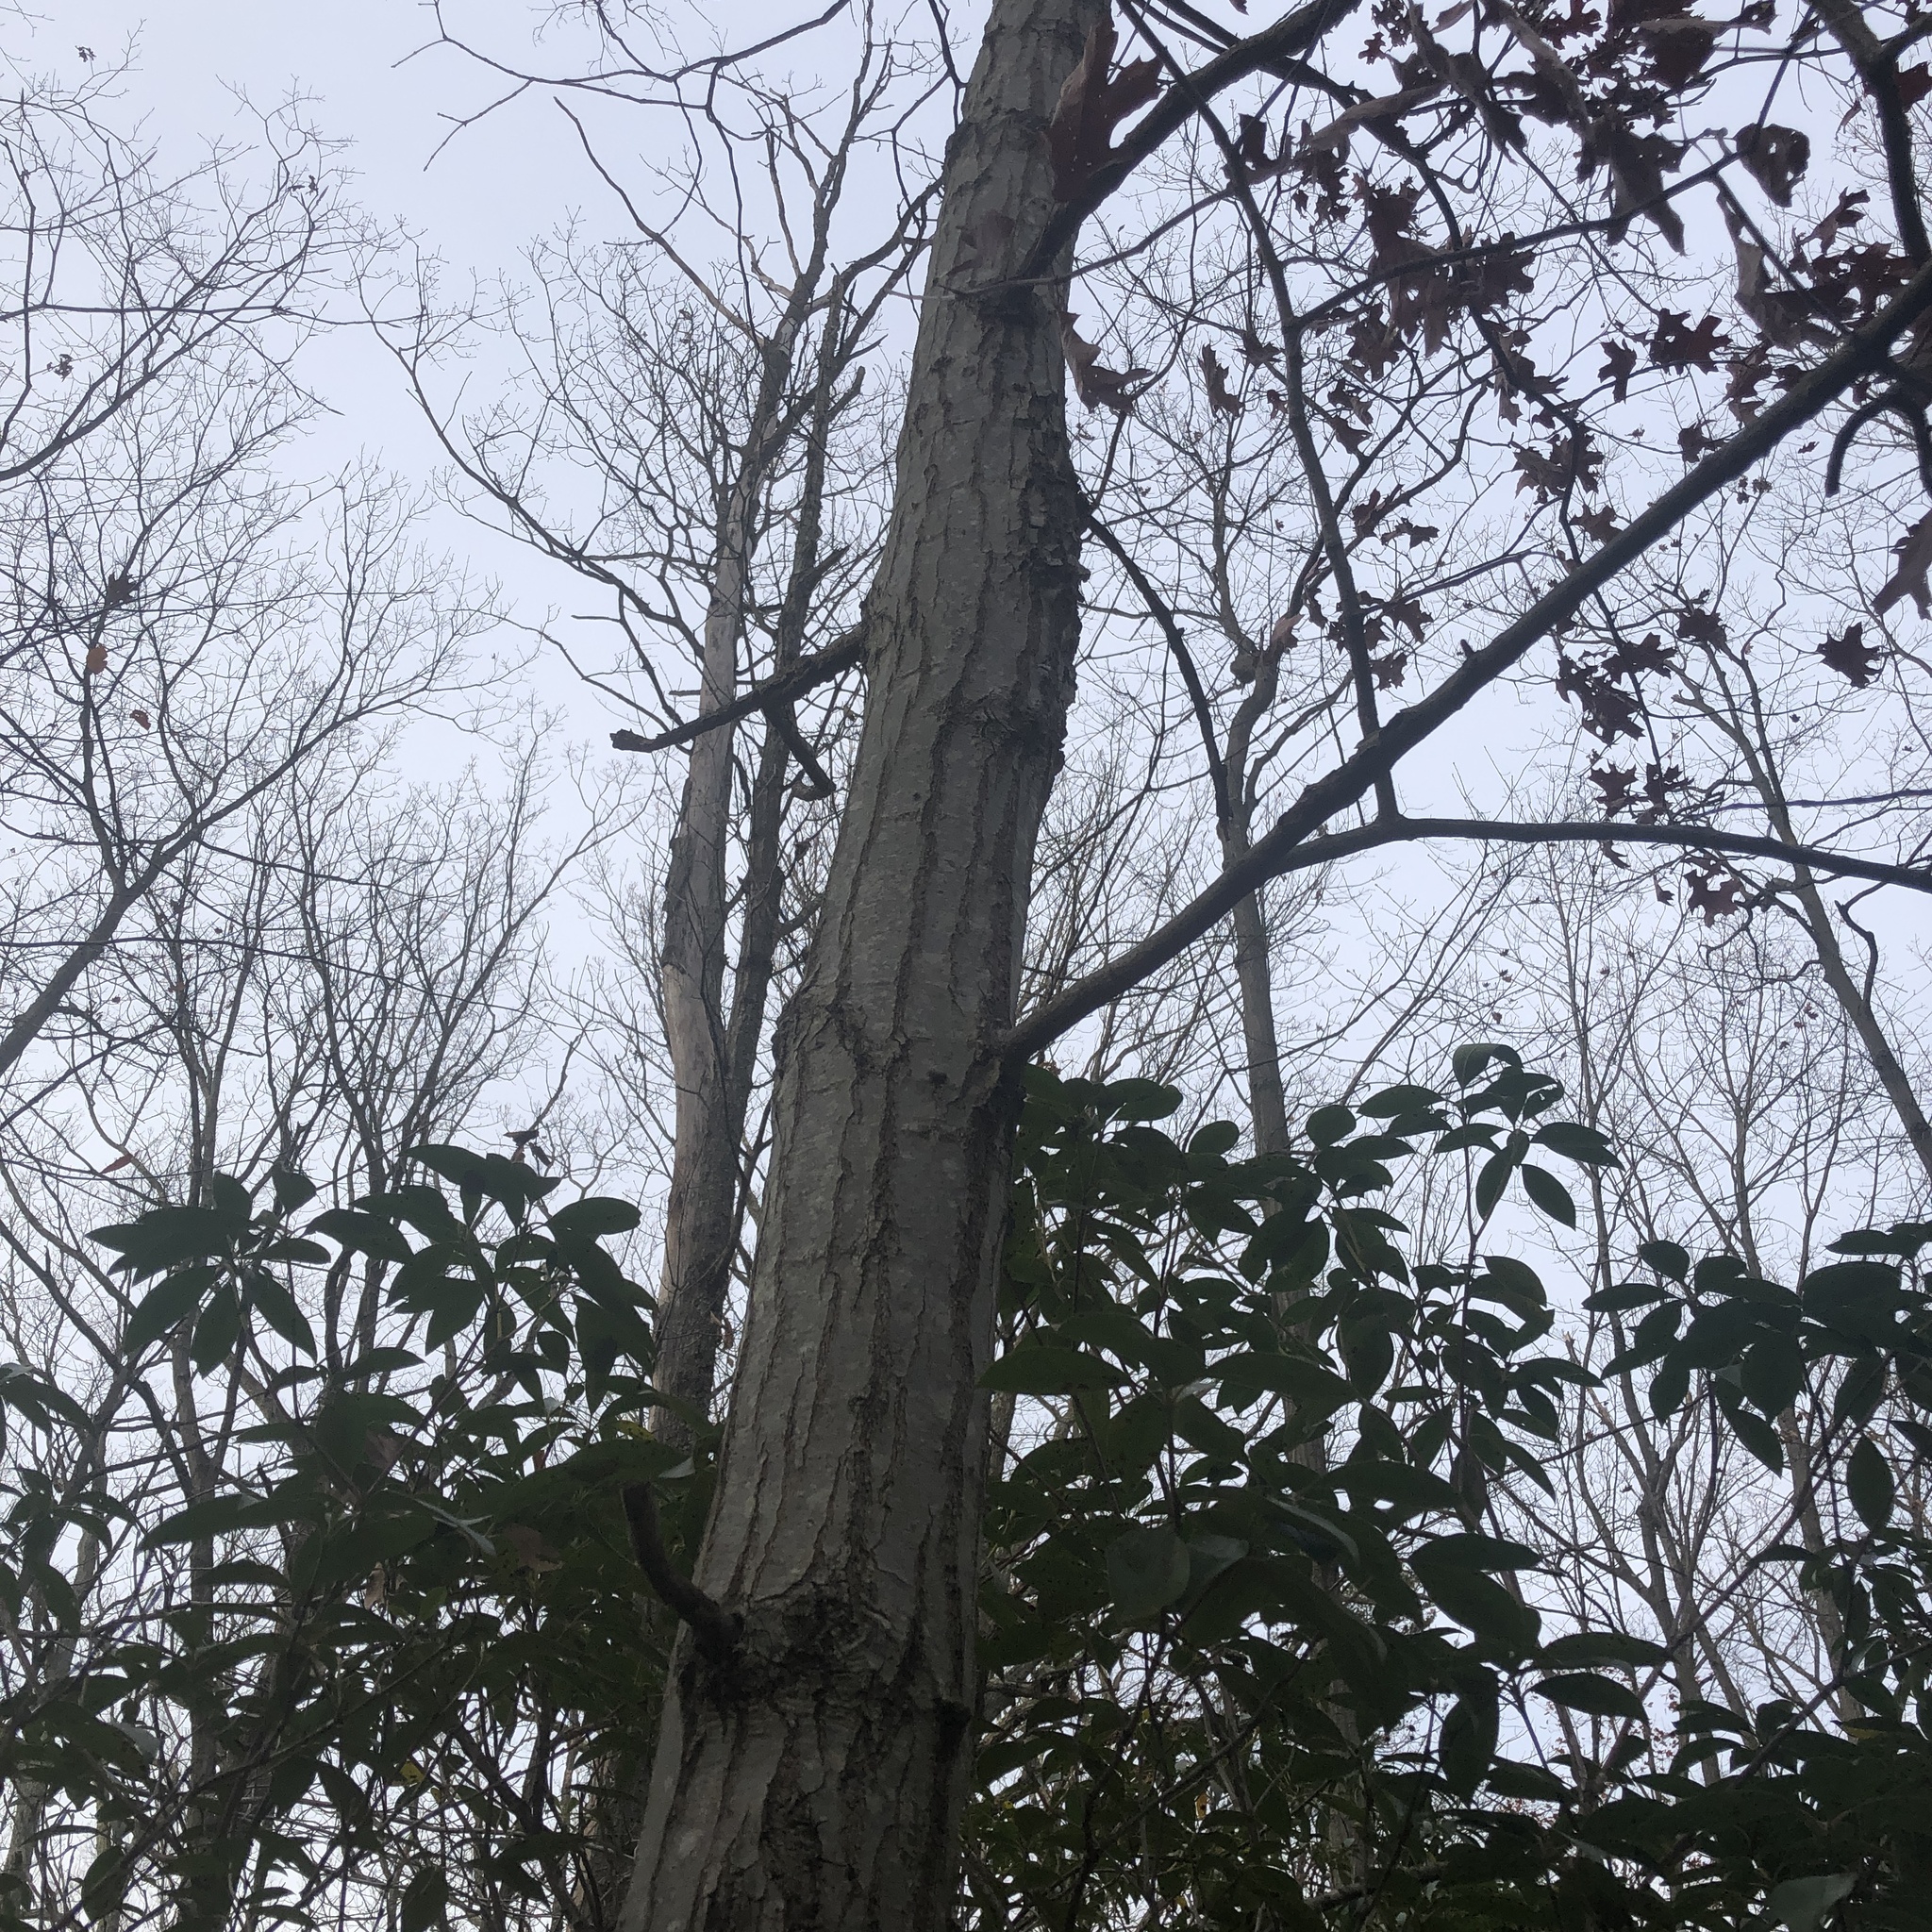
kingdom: Plantae
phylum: Tracheophyta
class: Magnoliopsida
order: Fagales
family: Fagaceae
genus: Quercus
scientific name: Quercus coccinea
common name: Scarlet oak
